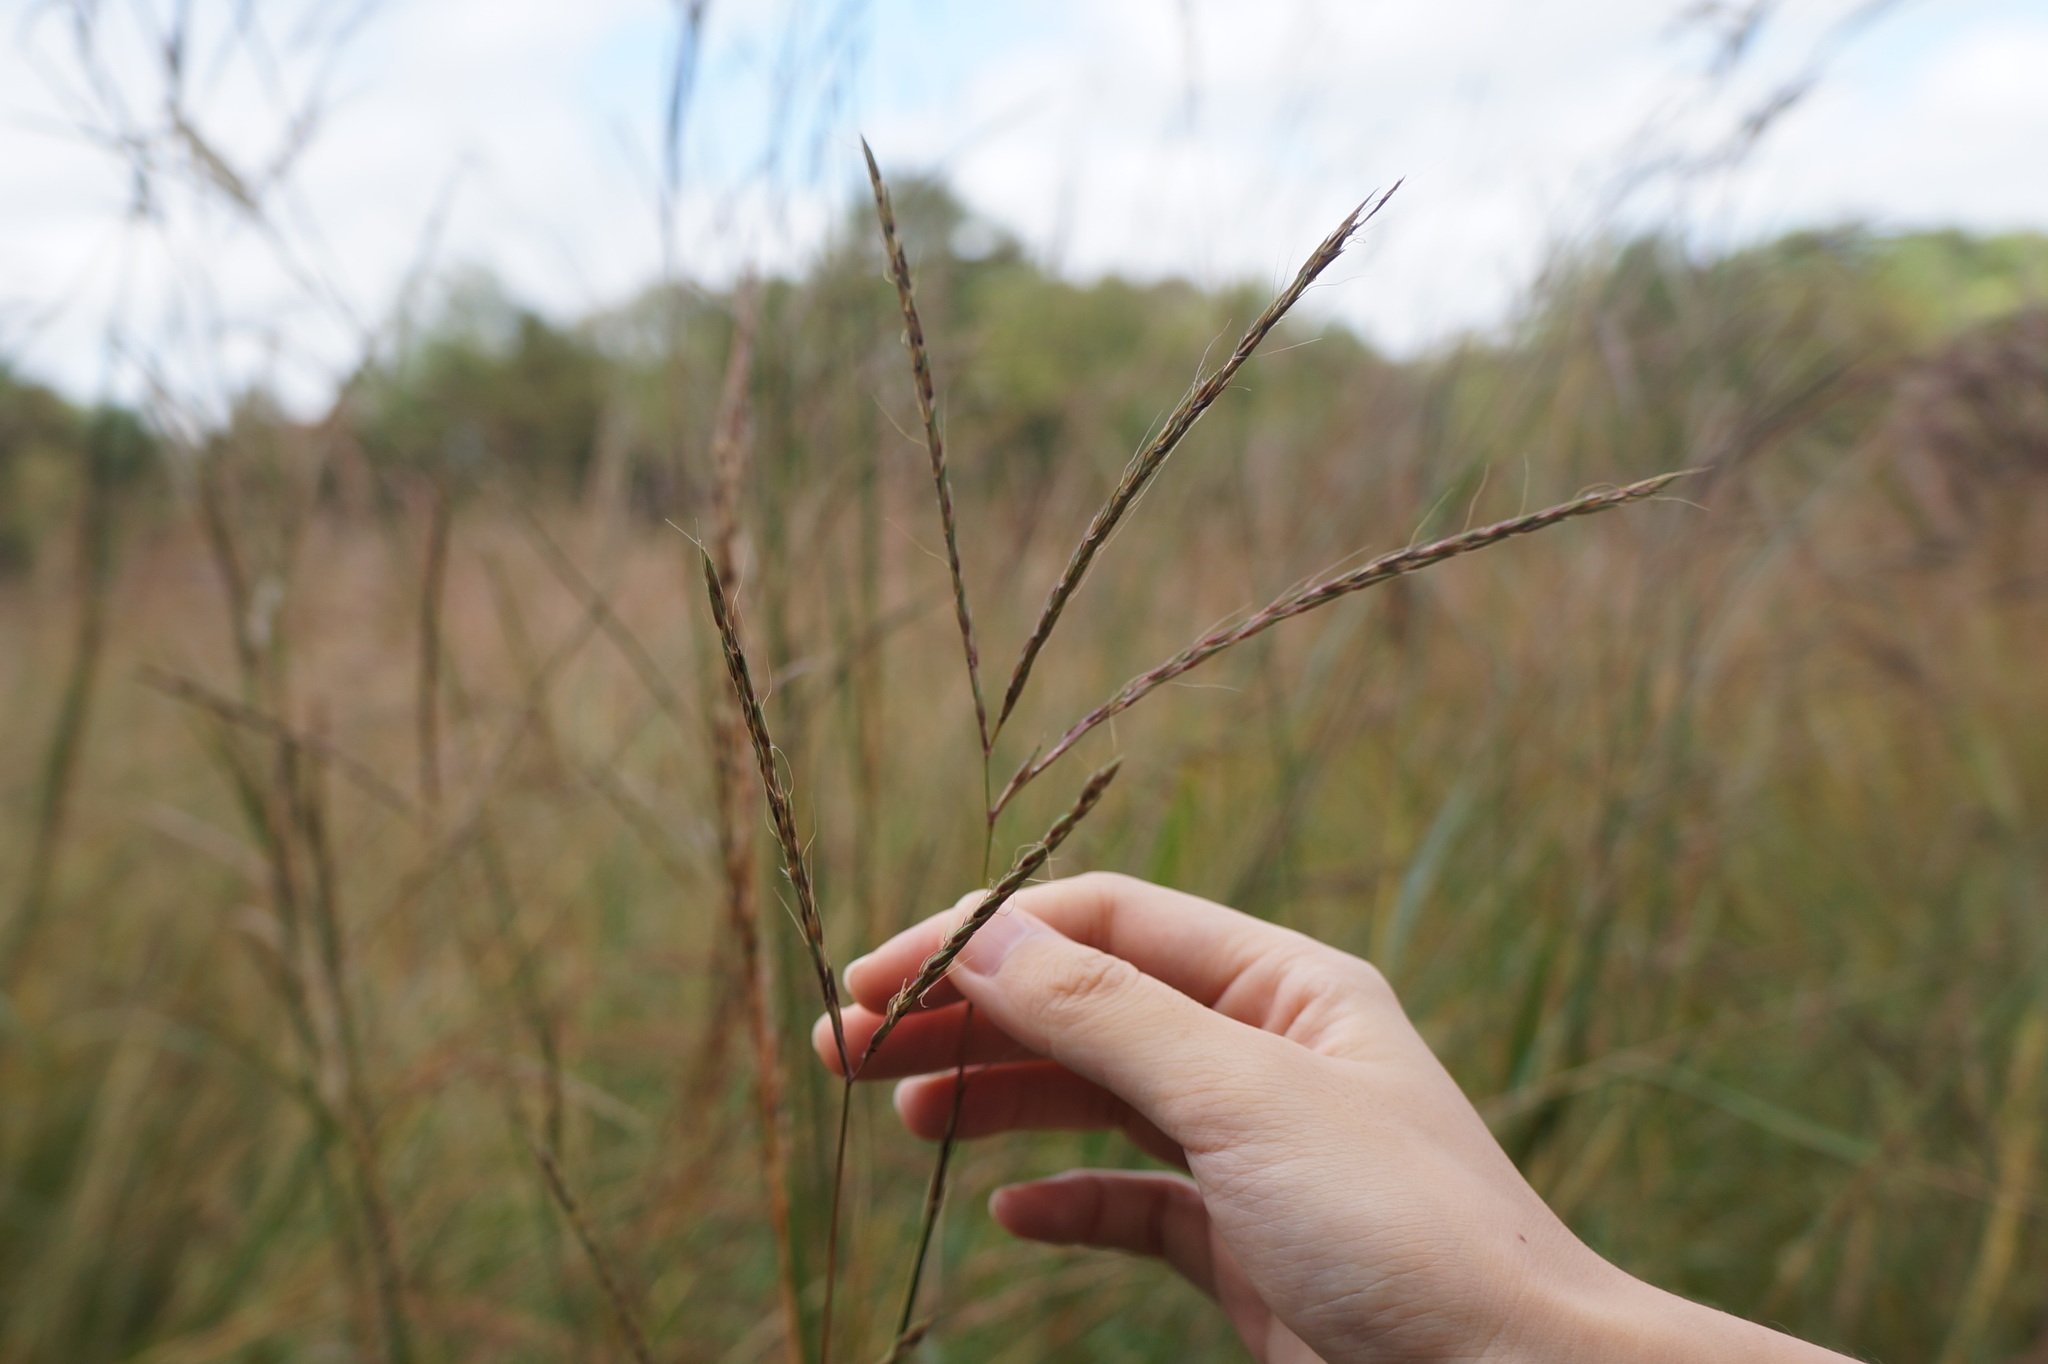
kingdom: Plantae
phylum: Tracheophyta
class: Liliopsida
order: Poales
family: Poaceae
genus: Andropogon
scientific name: Andropogon gerardi
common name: Big bluestem
